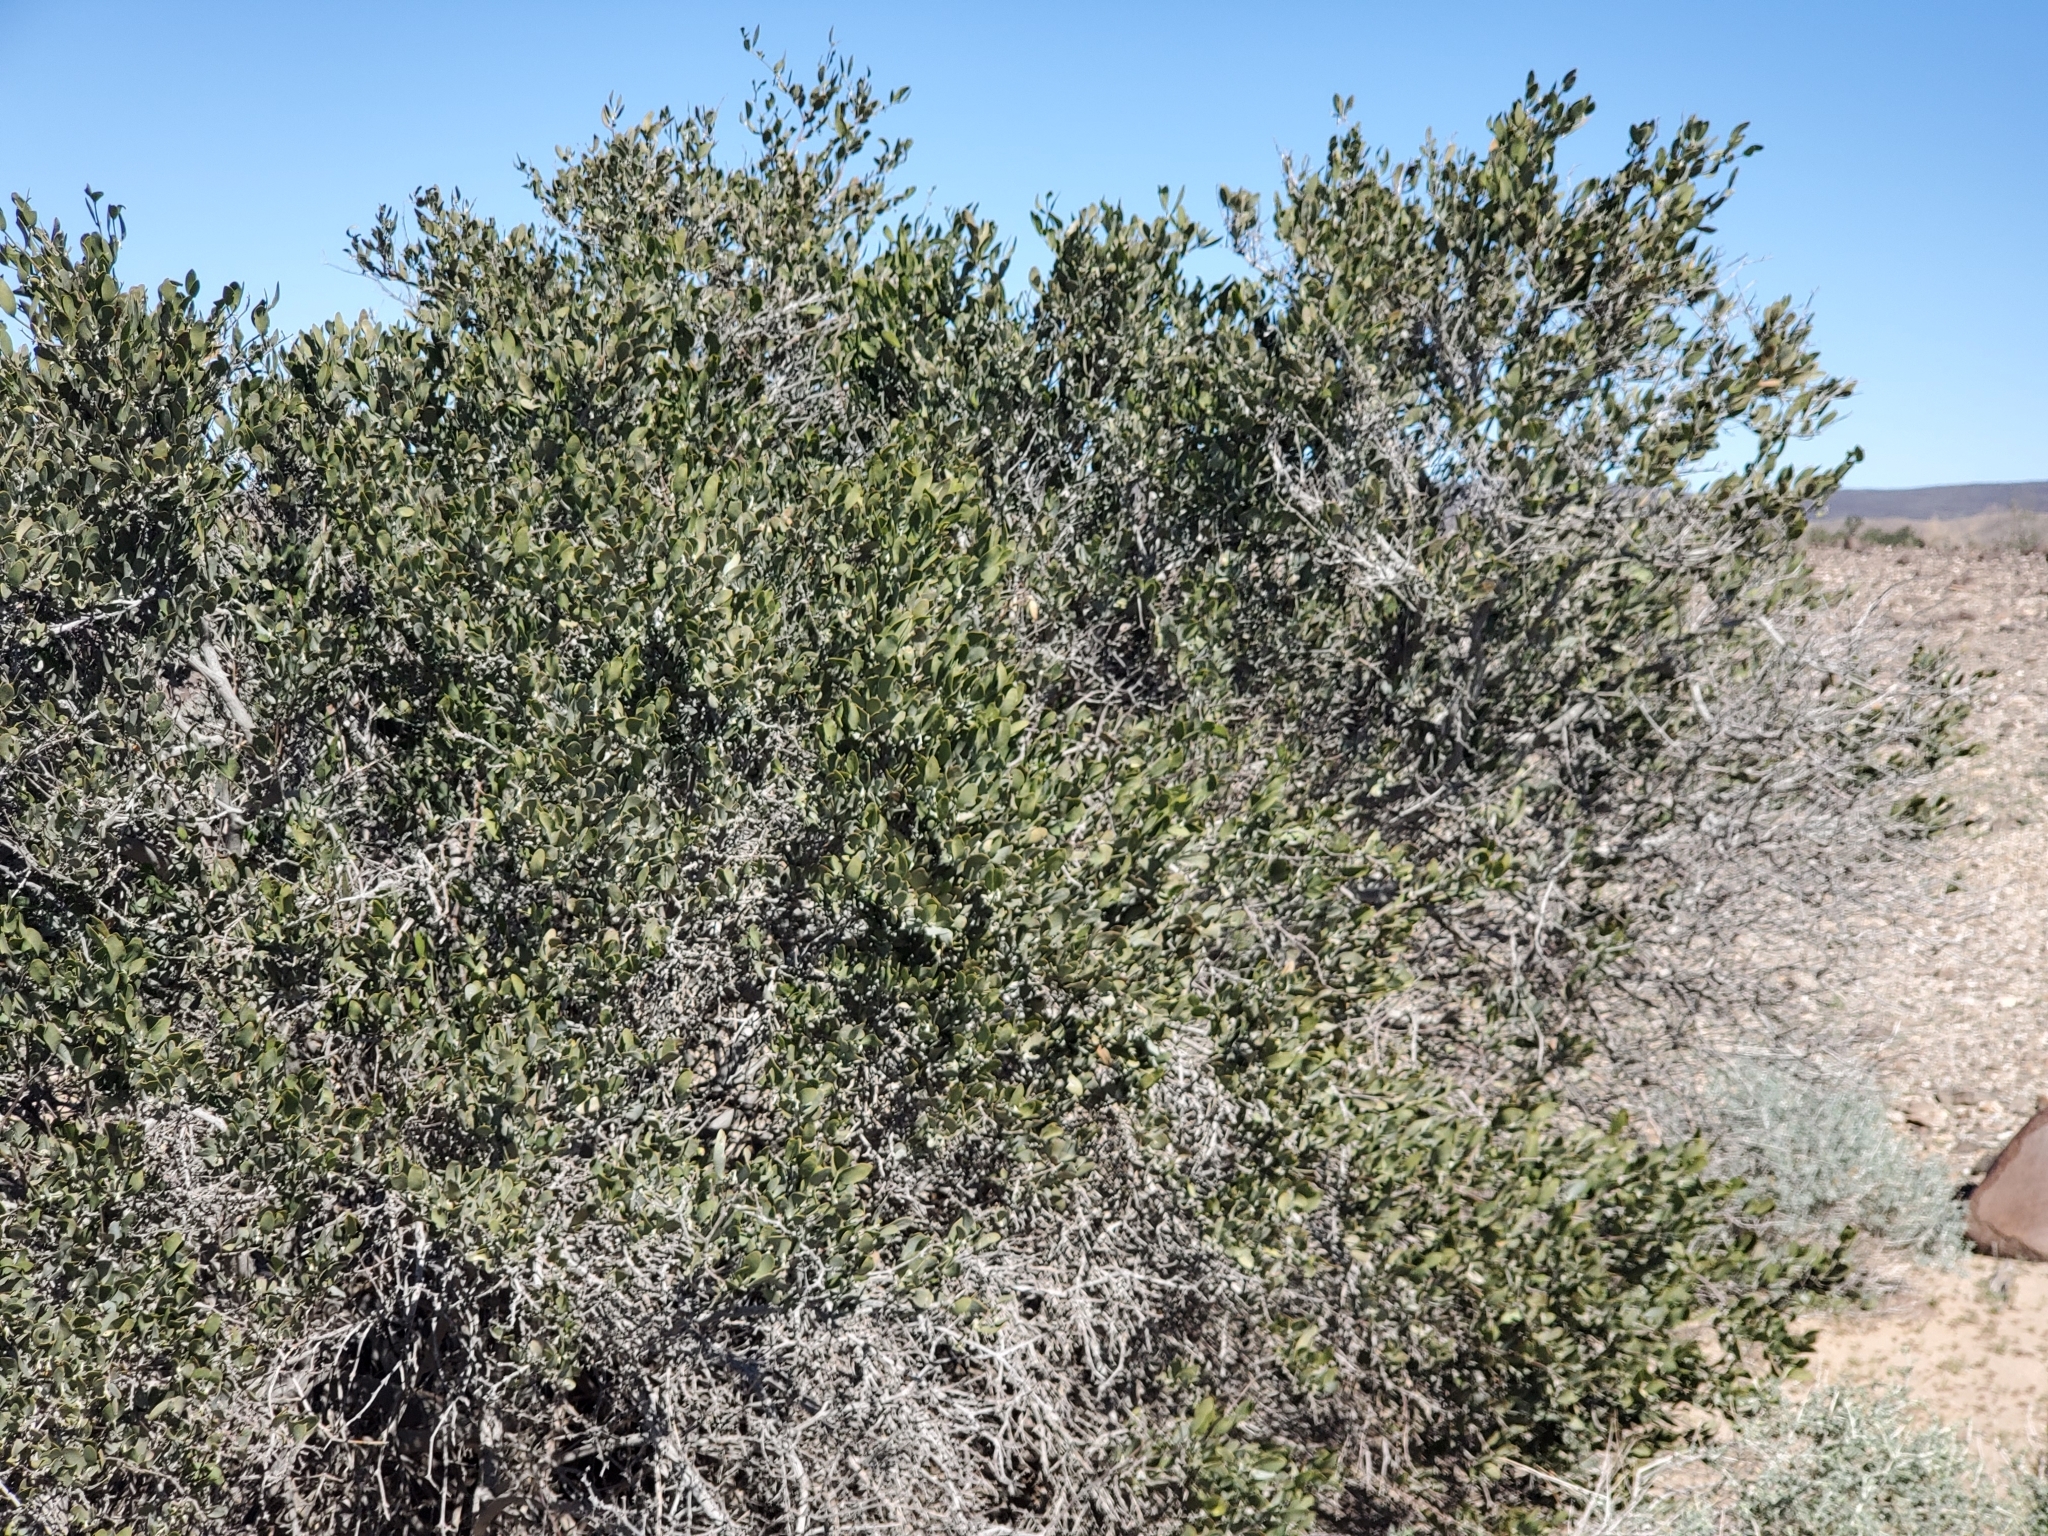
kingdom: Plantae
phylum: Tracheophyta
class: Magnoliopsida
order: Caryophyllales
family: Simmondsiaceae
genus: Simmondsia
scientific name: Simmondsia chinensis
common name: Jojoba
